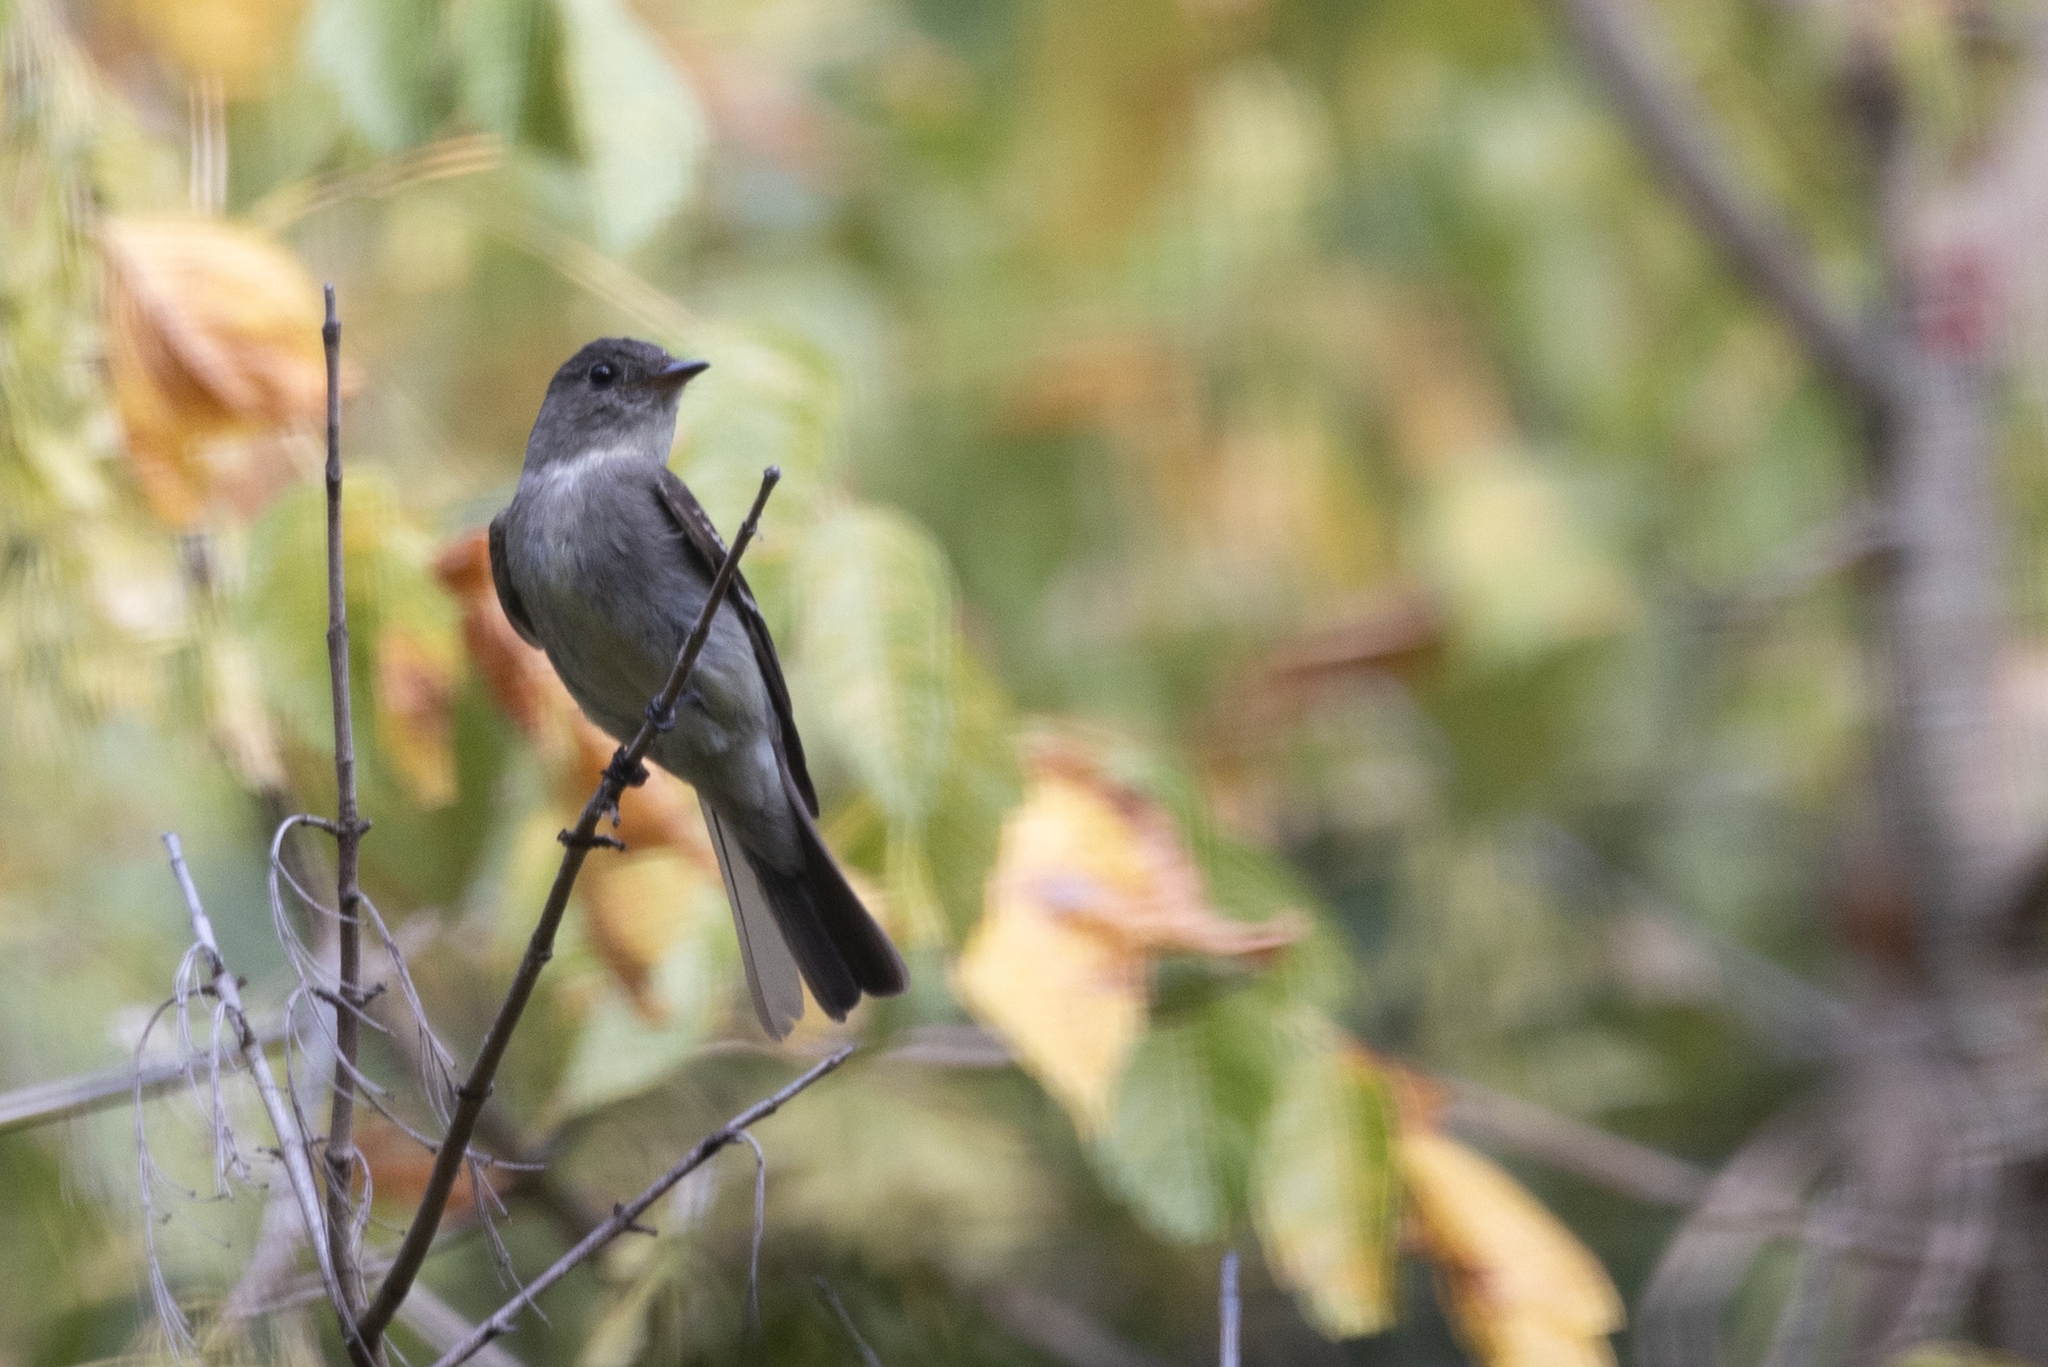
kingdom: Animalia
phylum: Chordata
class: Aves
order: Passeriformes
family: Tyrannidae
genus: Contopus
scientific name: Contopus virens
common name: Eastern wood-pewee
